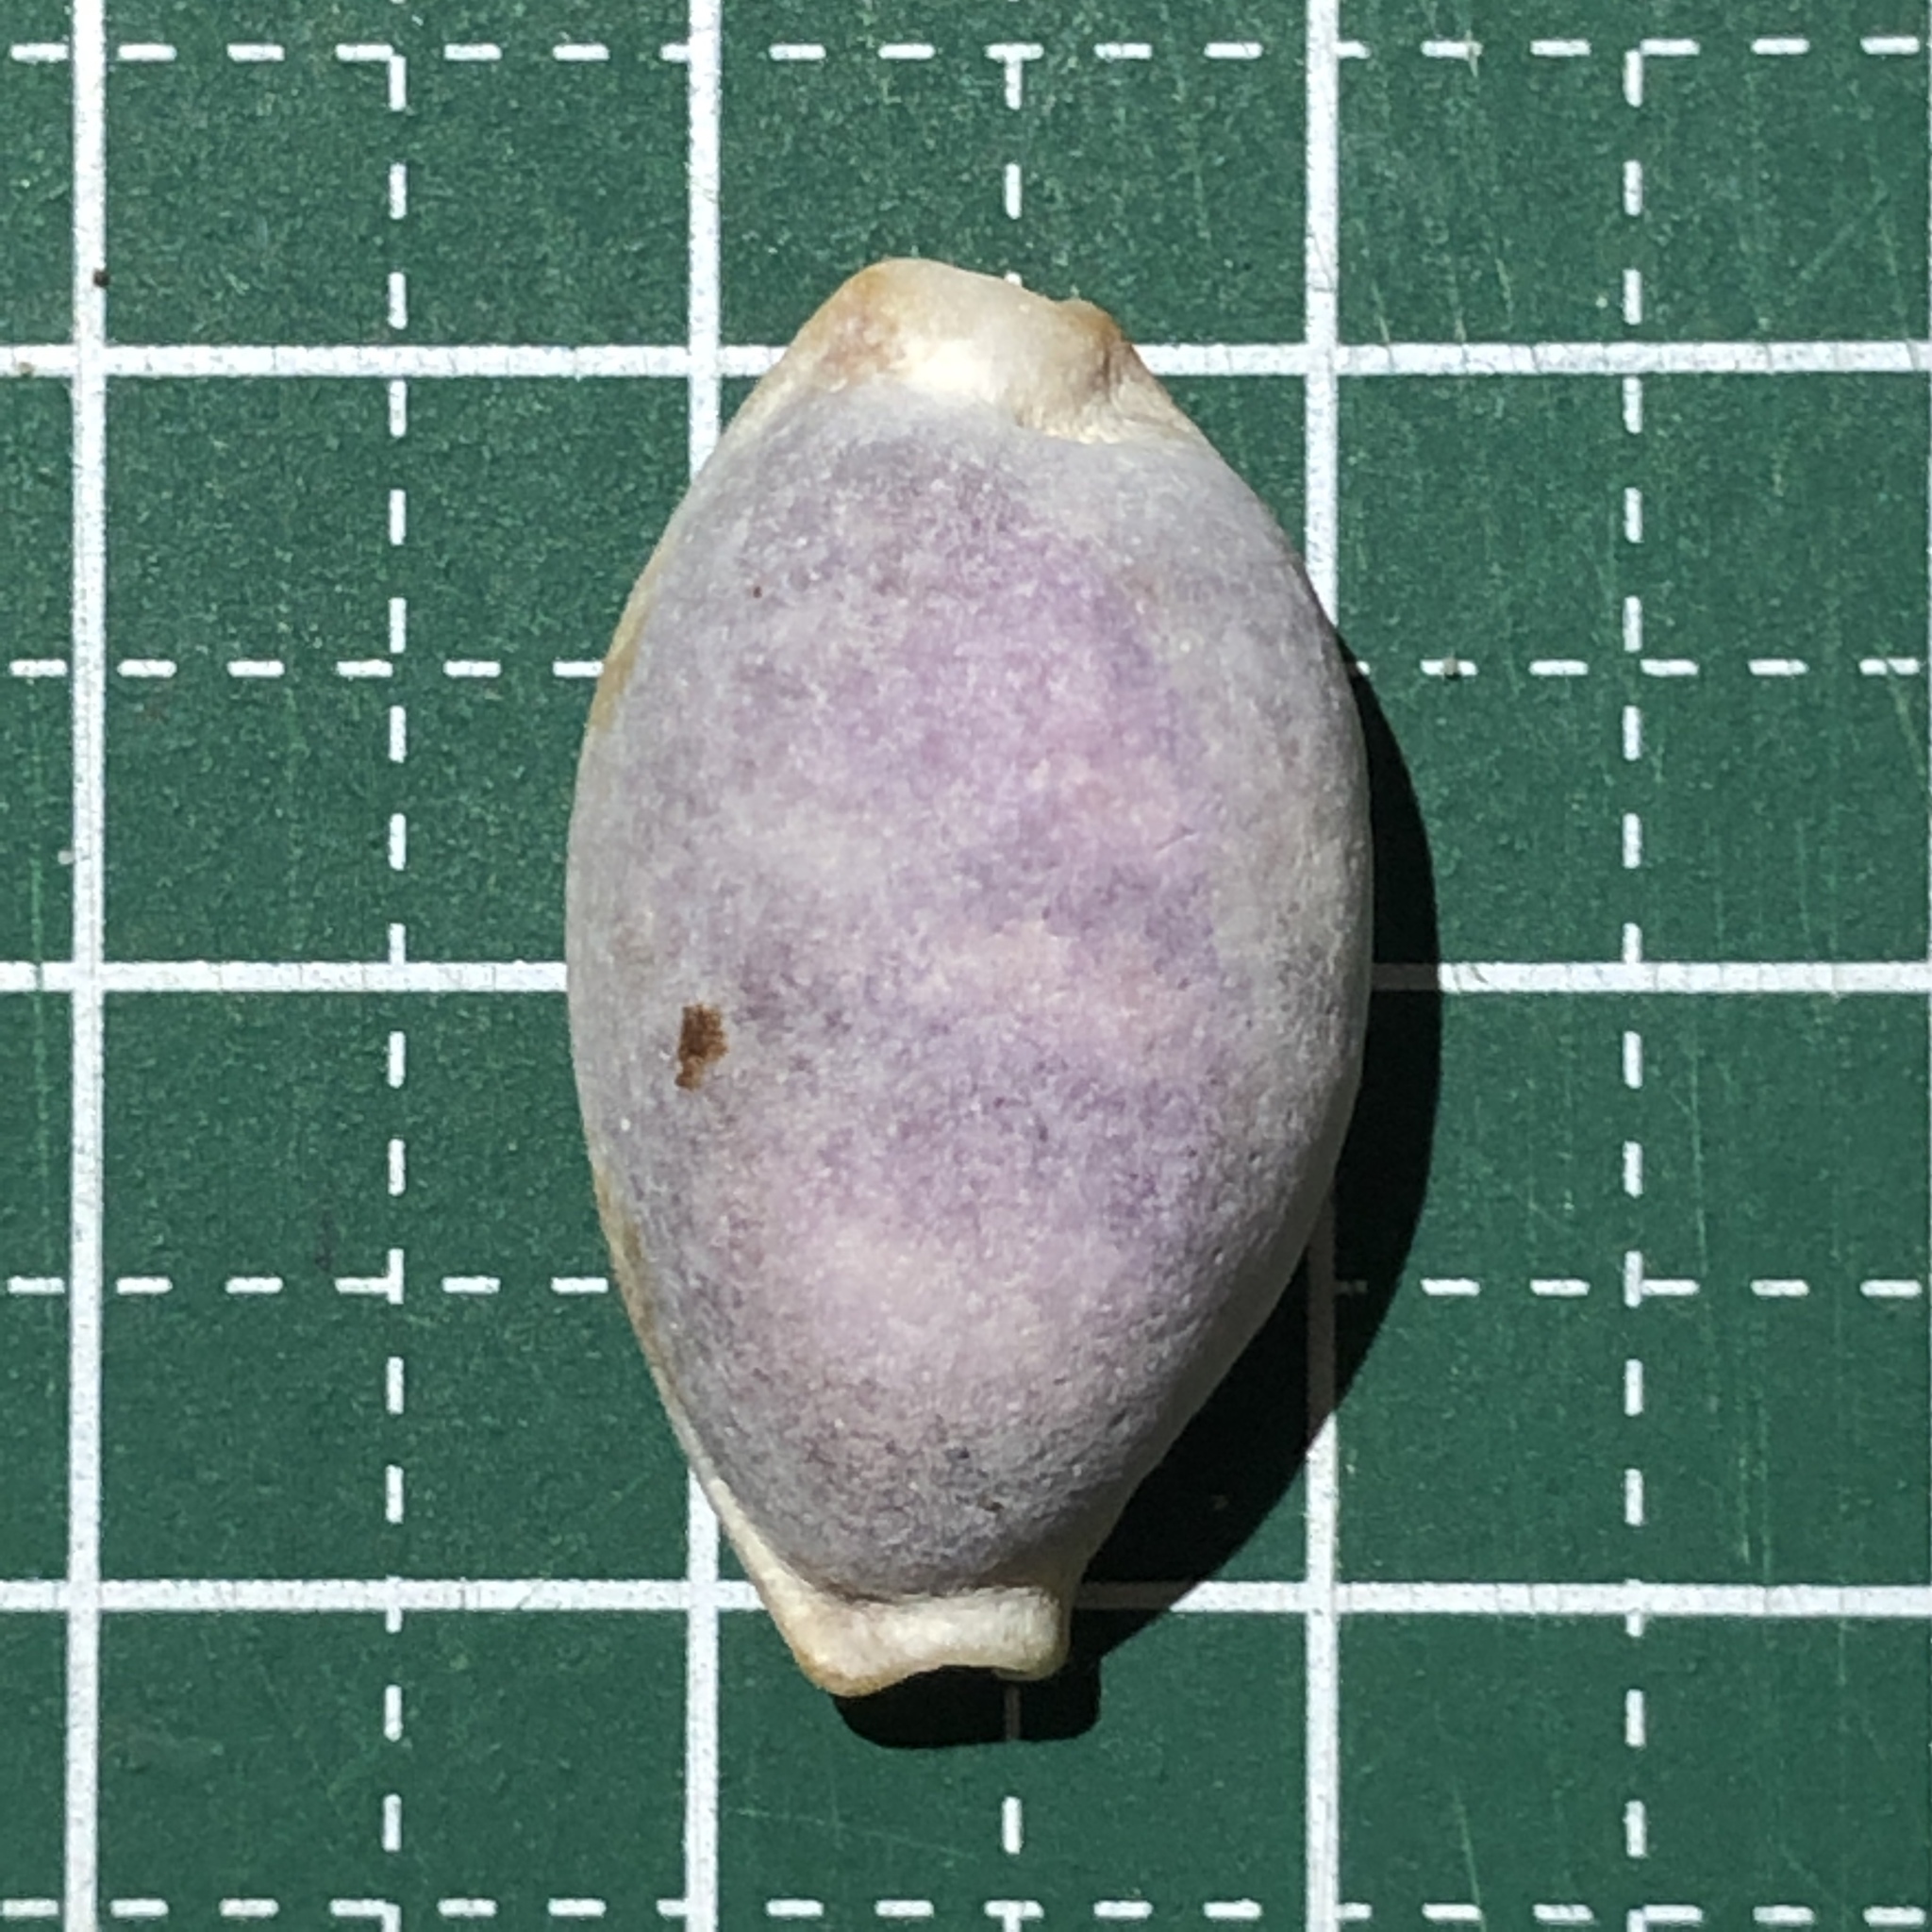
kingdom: Animalia
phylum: Mollusca
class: Gastropoda
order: Littorinimorpha
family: Cypraeidae
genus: Bistolida
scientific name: Bistolida stolida
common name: Stolid cowrie
